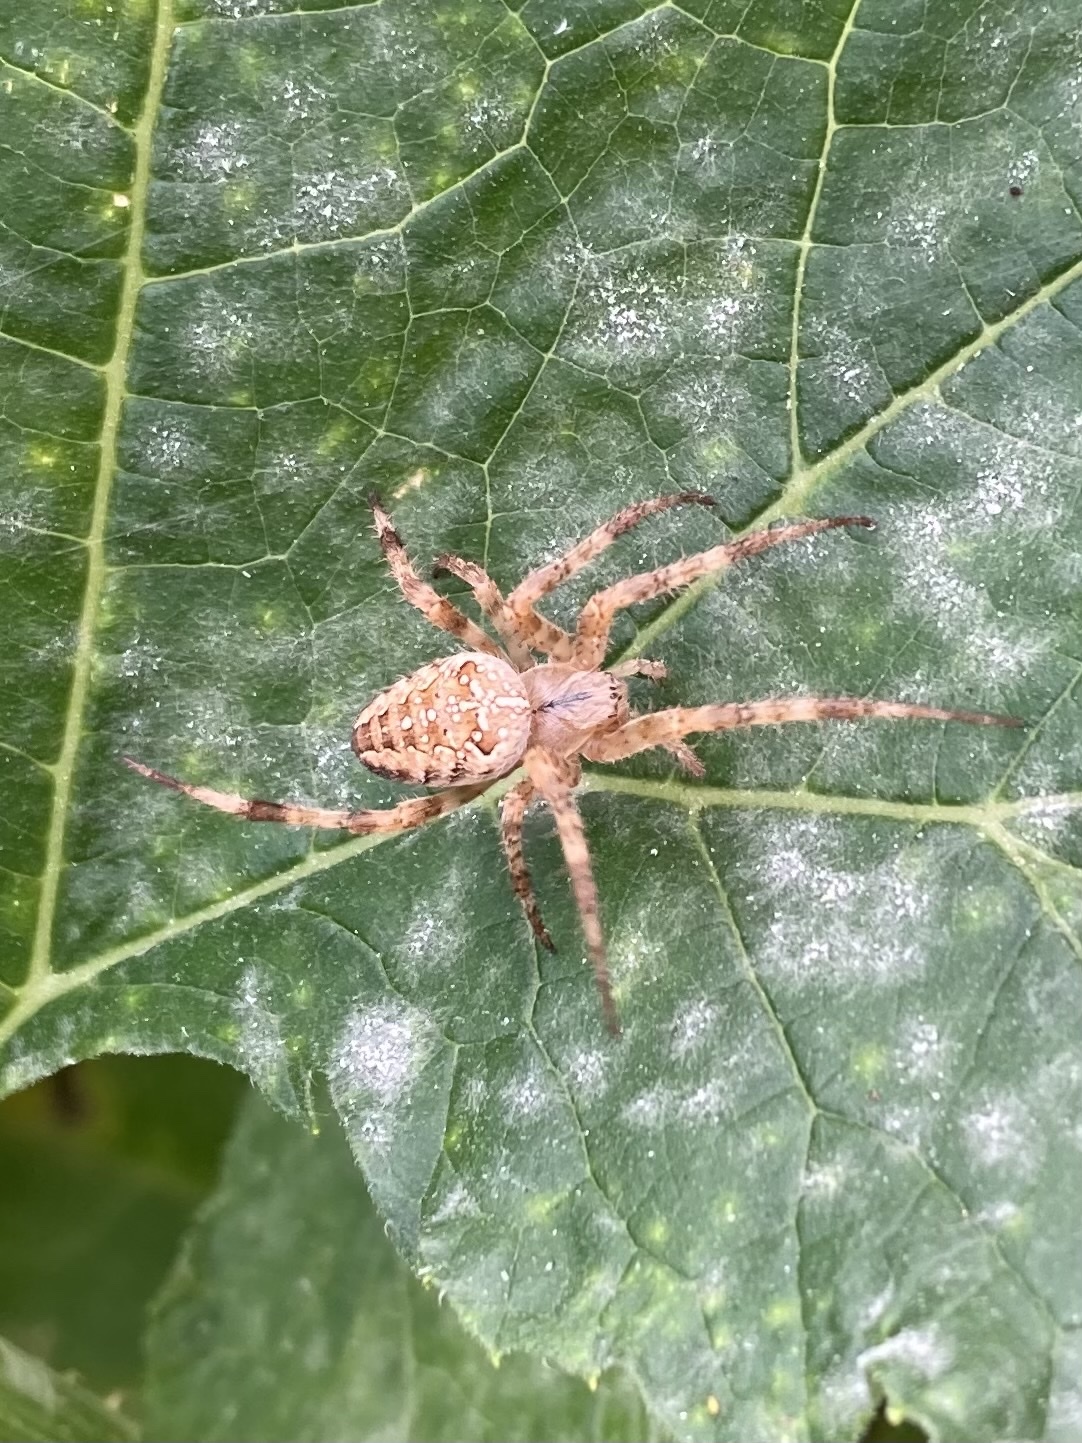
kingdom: Animalia
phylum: Arthropoda
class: Arachnida
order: Araneae
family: Araneidae
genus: Araneus
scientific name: Araneus diadematus
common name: Cross orbweaver
